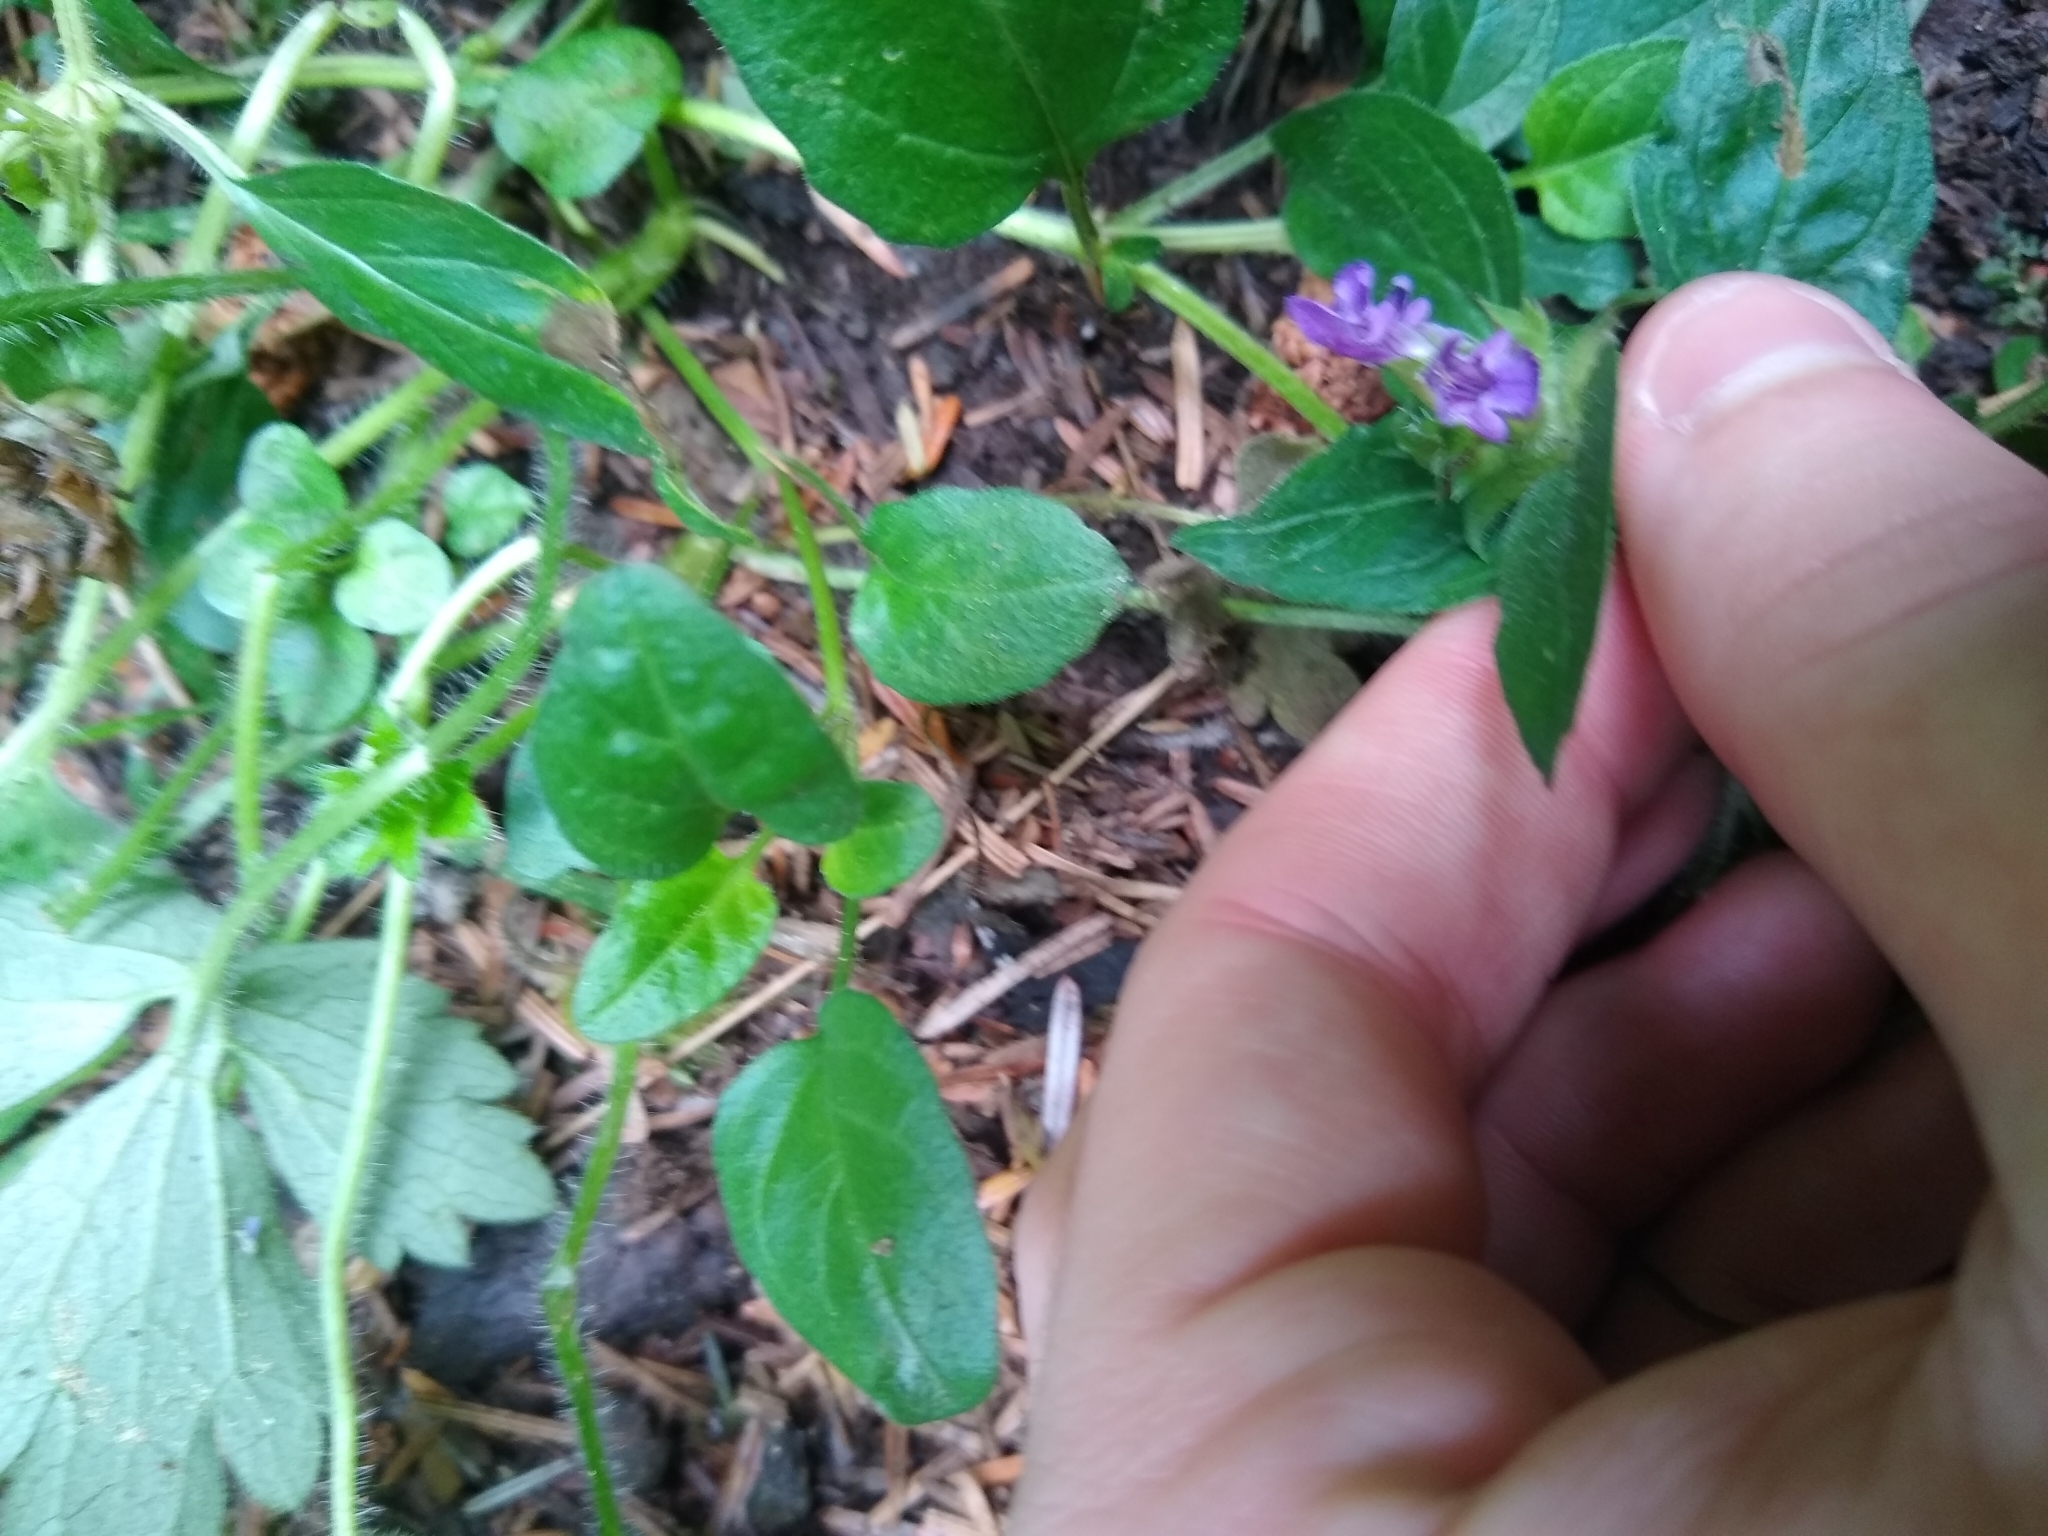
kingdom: Plantae
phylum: Tracheophyta
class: Magnoliopsida
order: Lamiales
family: Lamiaceae
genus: Prunella
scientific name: Prunella vulgaris
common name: Heal-all
